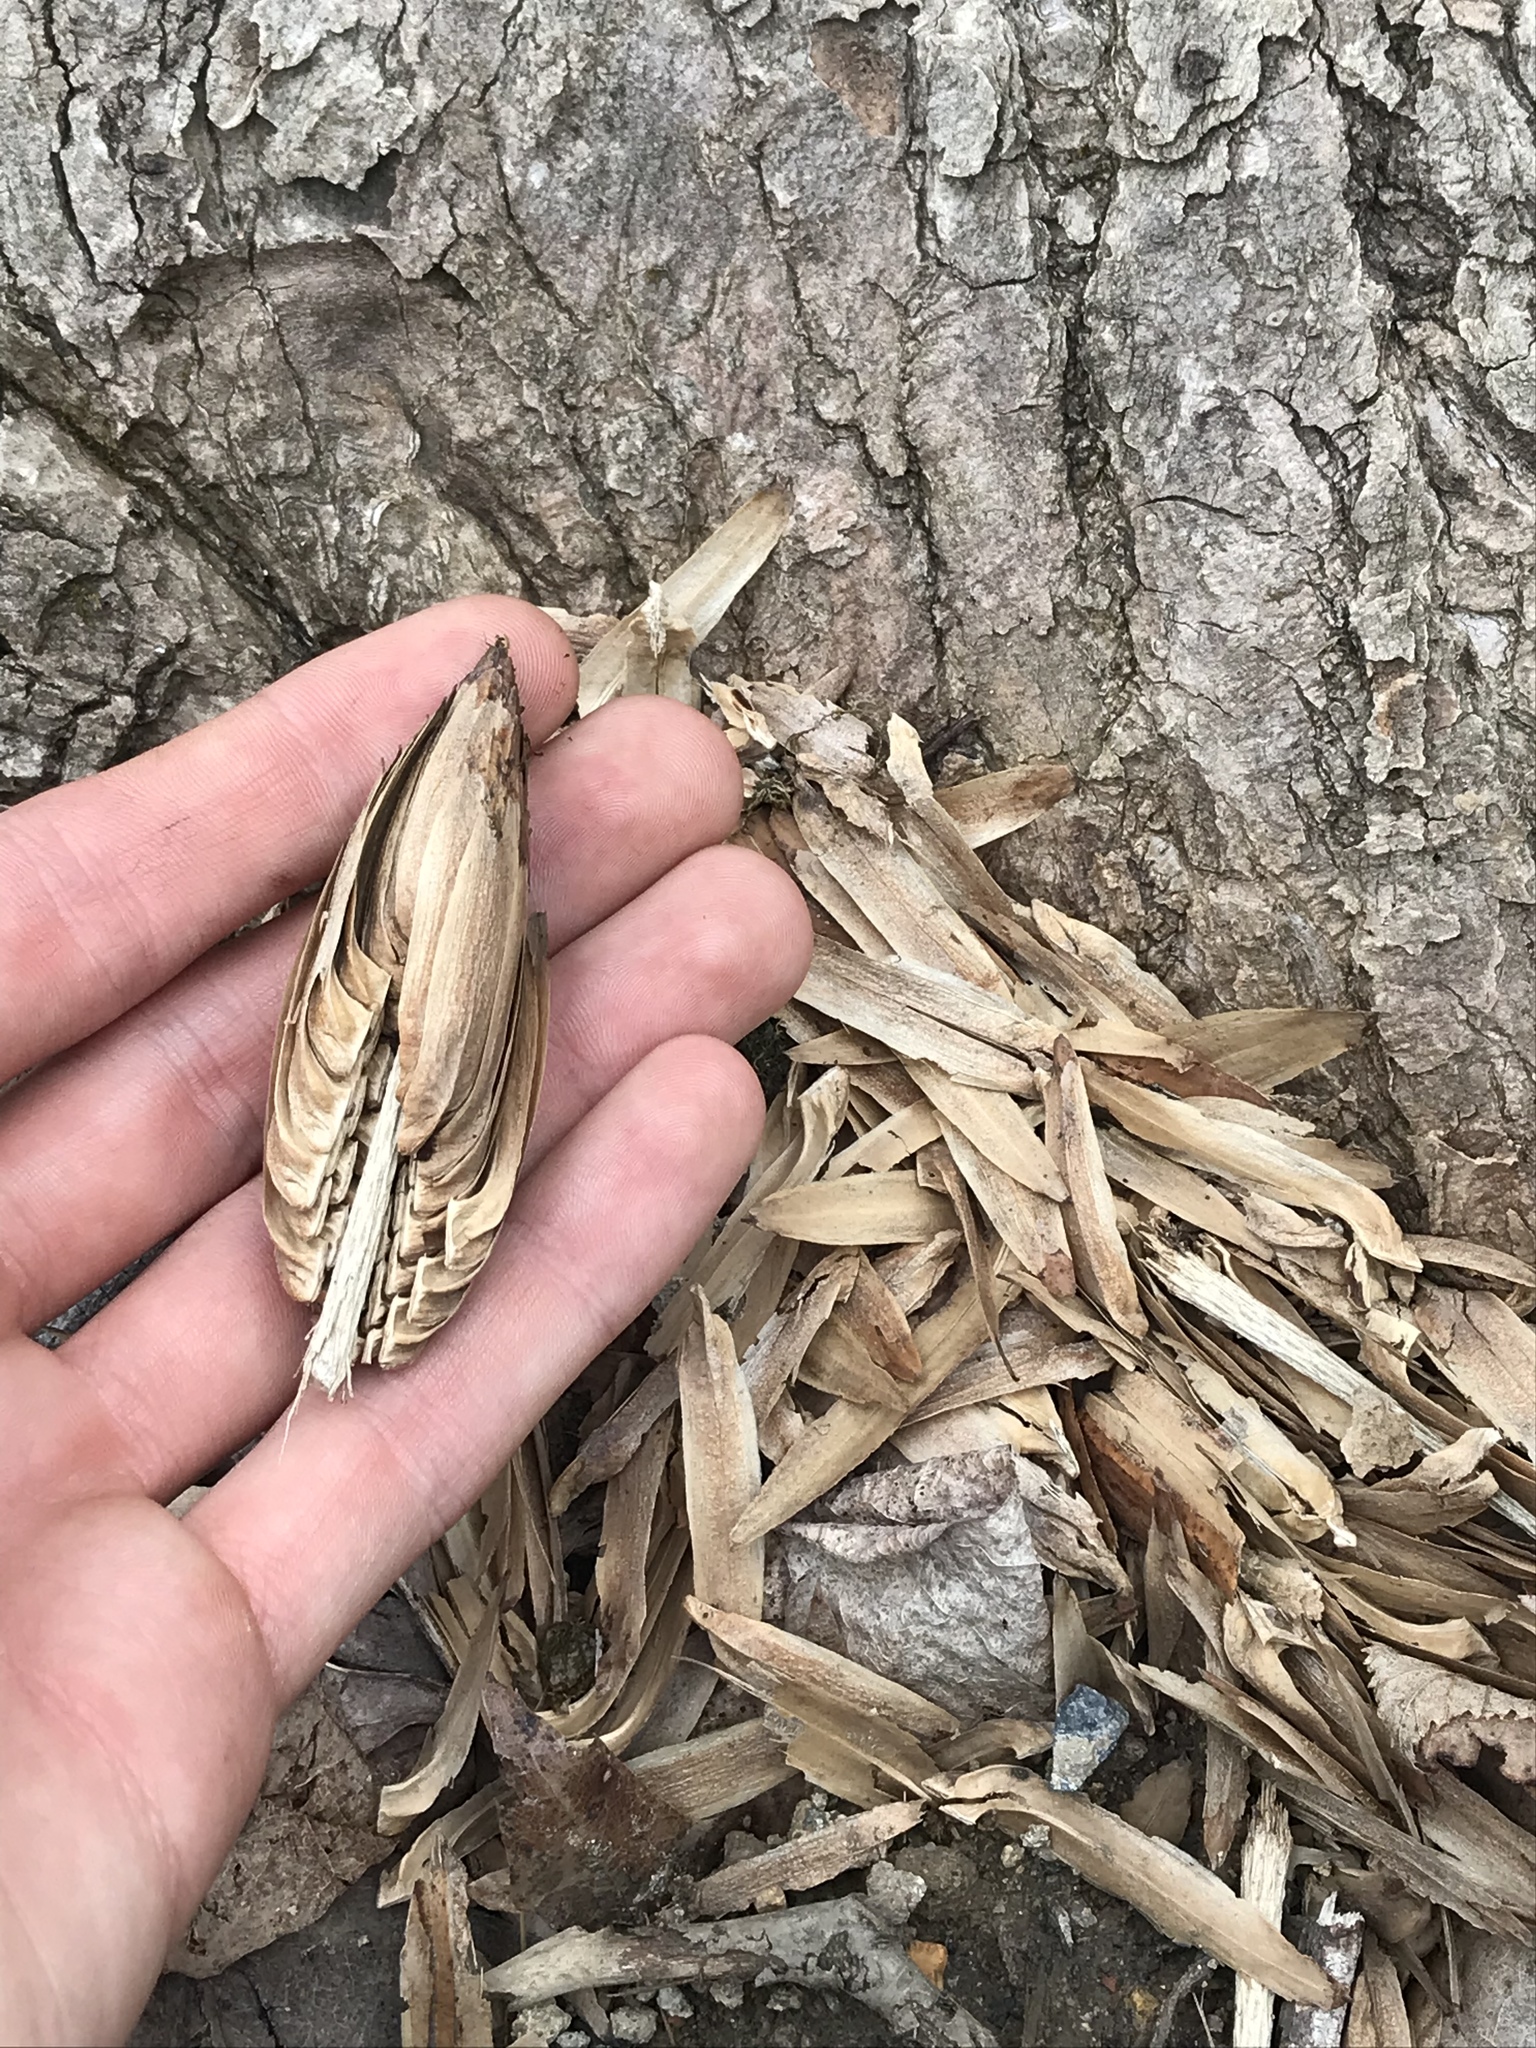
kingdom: Plantae
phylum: Tracheophyta
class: Magnoliopsida
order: Magnoliales
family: Magnoliaceae
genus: Liriodendron
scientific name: Liriodendron tulipifera
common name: Tulip tree
